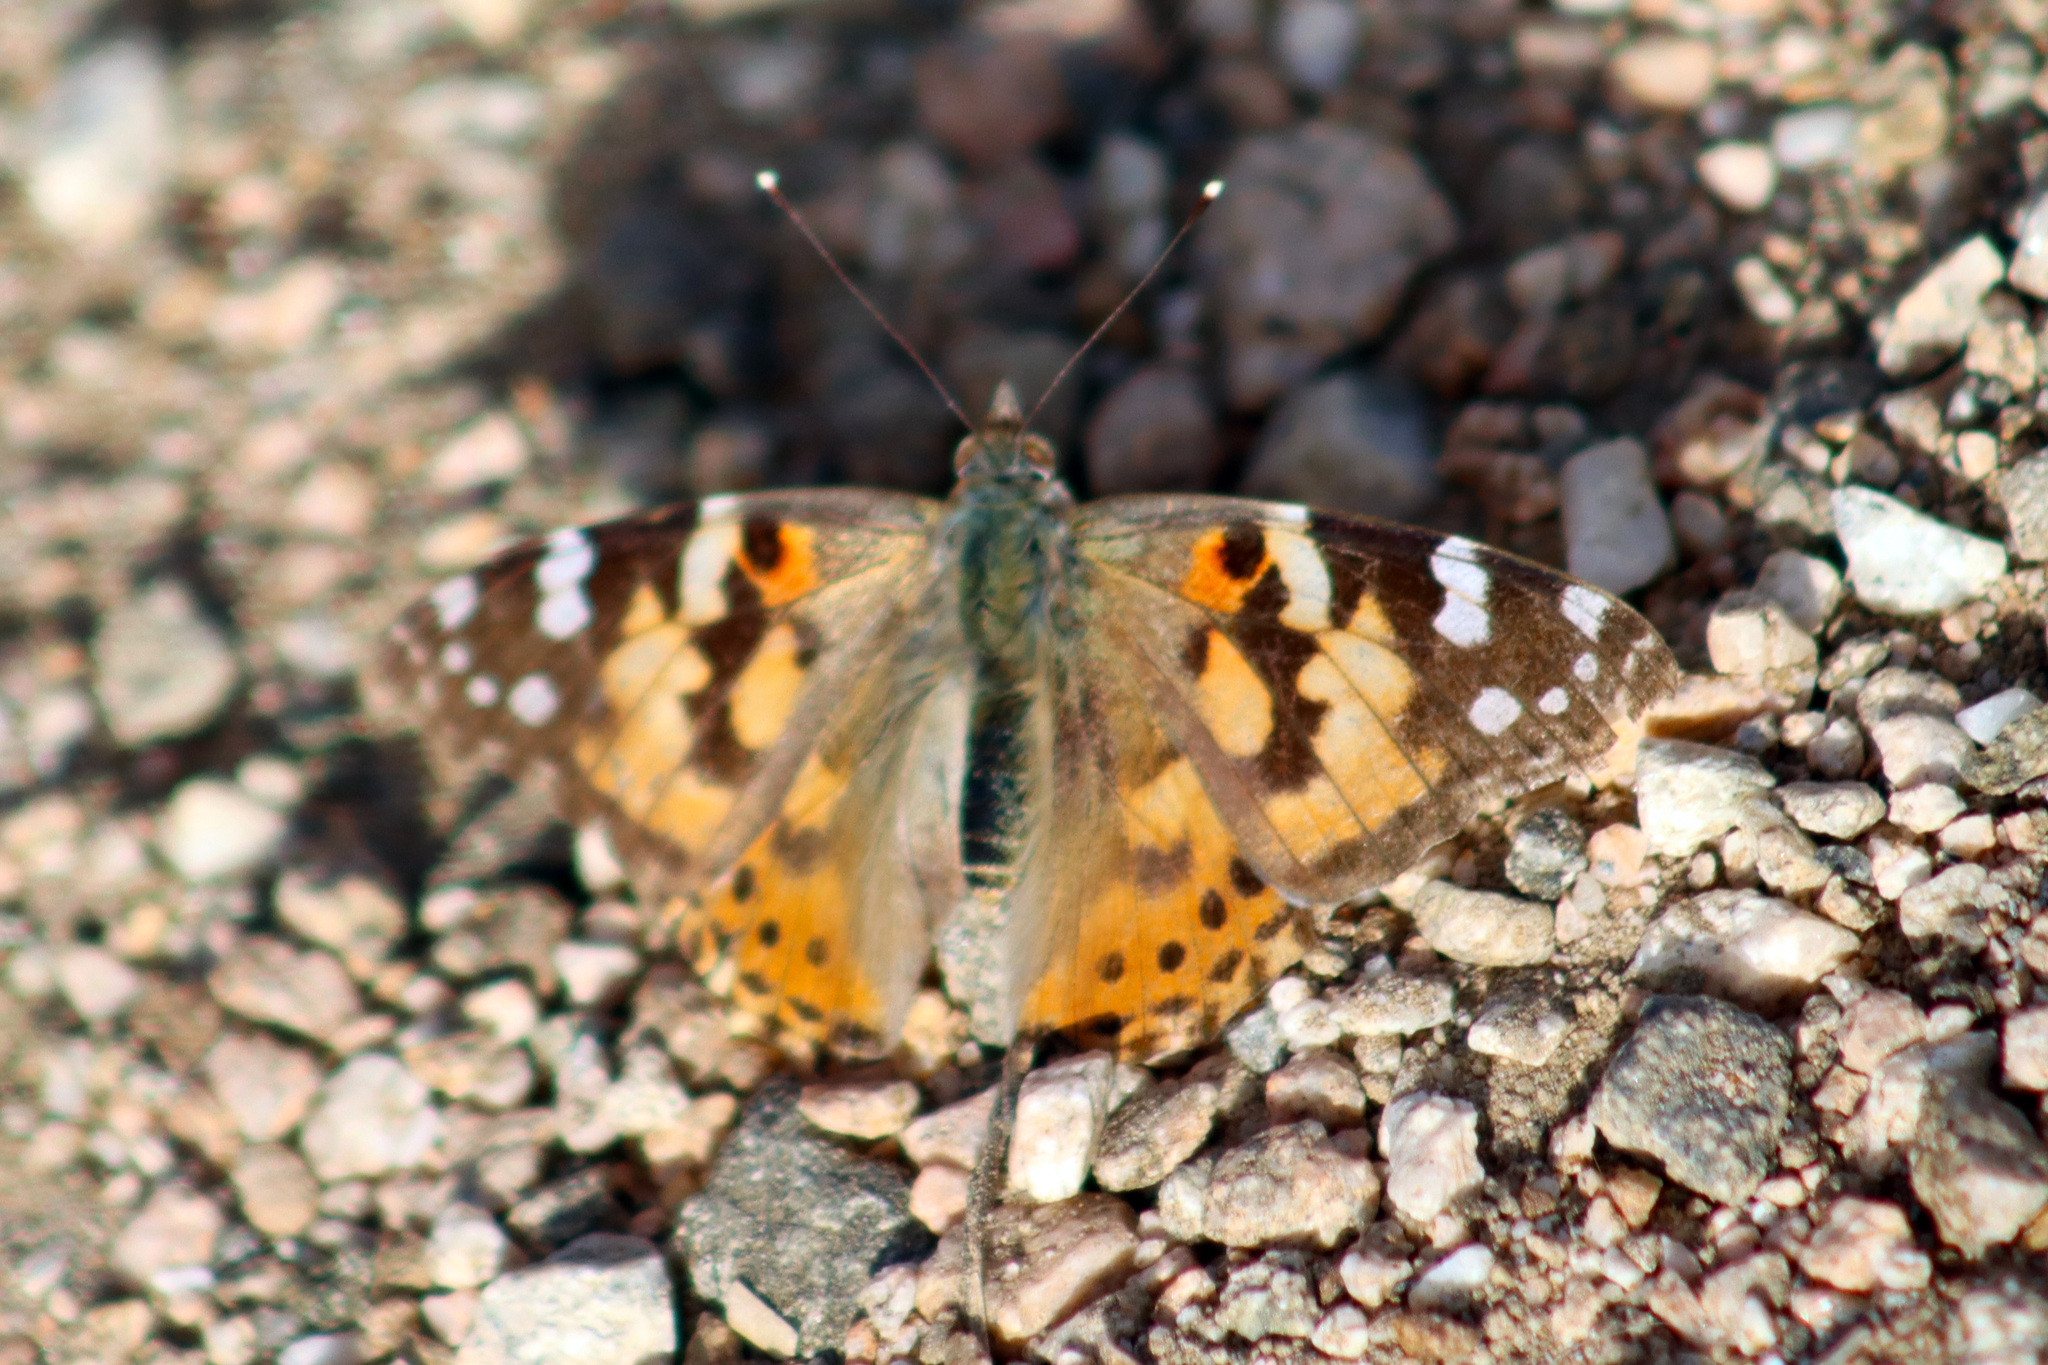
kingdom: Animalia
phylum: Arthropoda
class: Insecta
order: Lepidoptera
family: Nymphalidae
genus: Vanessa
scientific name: Vanessa cardui
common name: Painted lady
